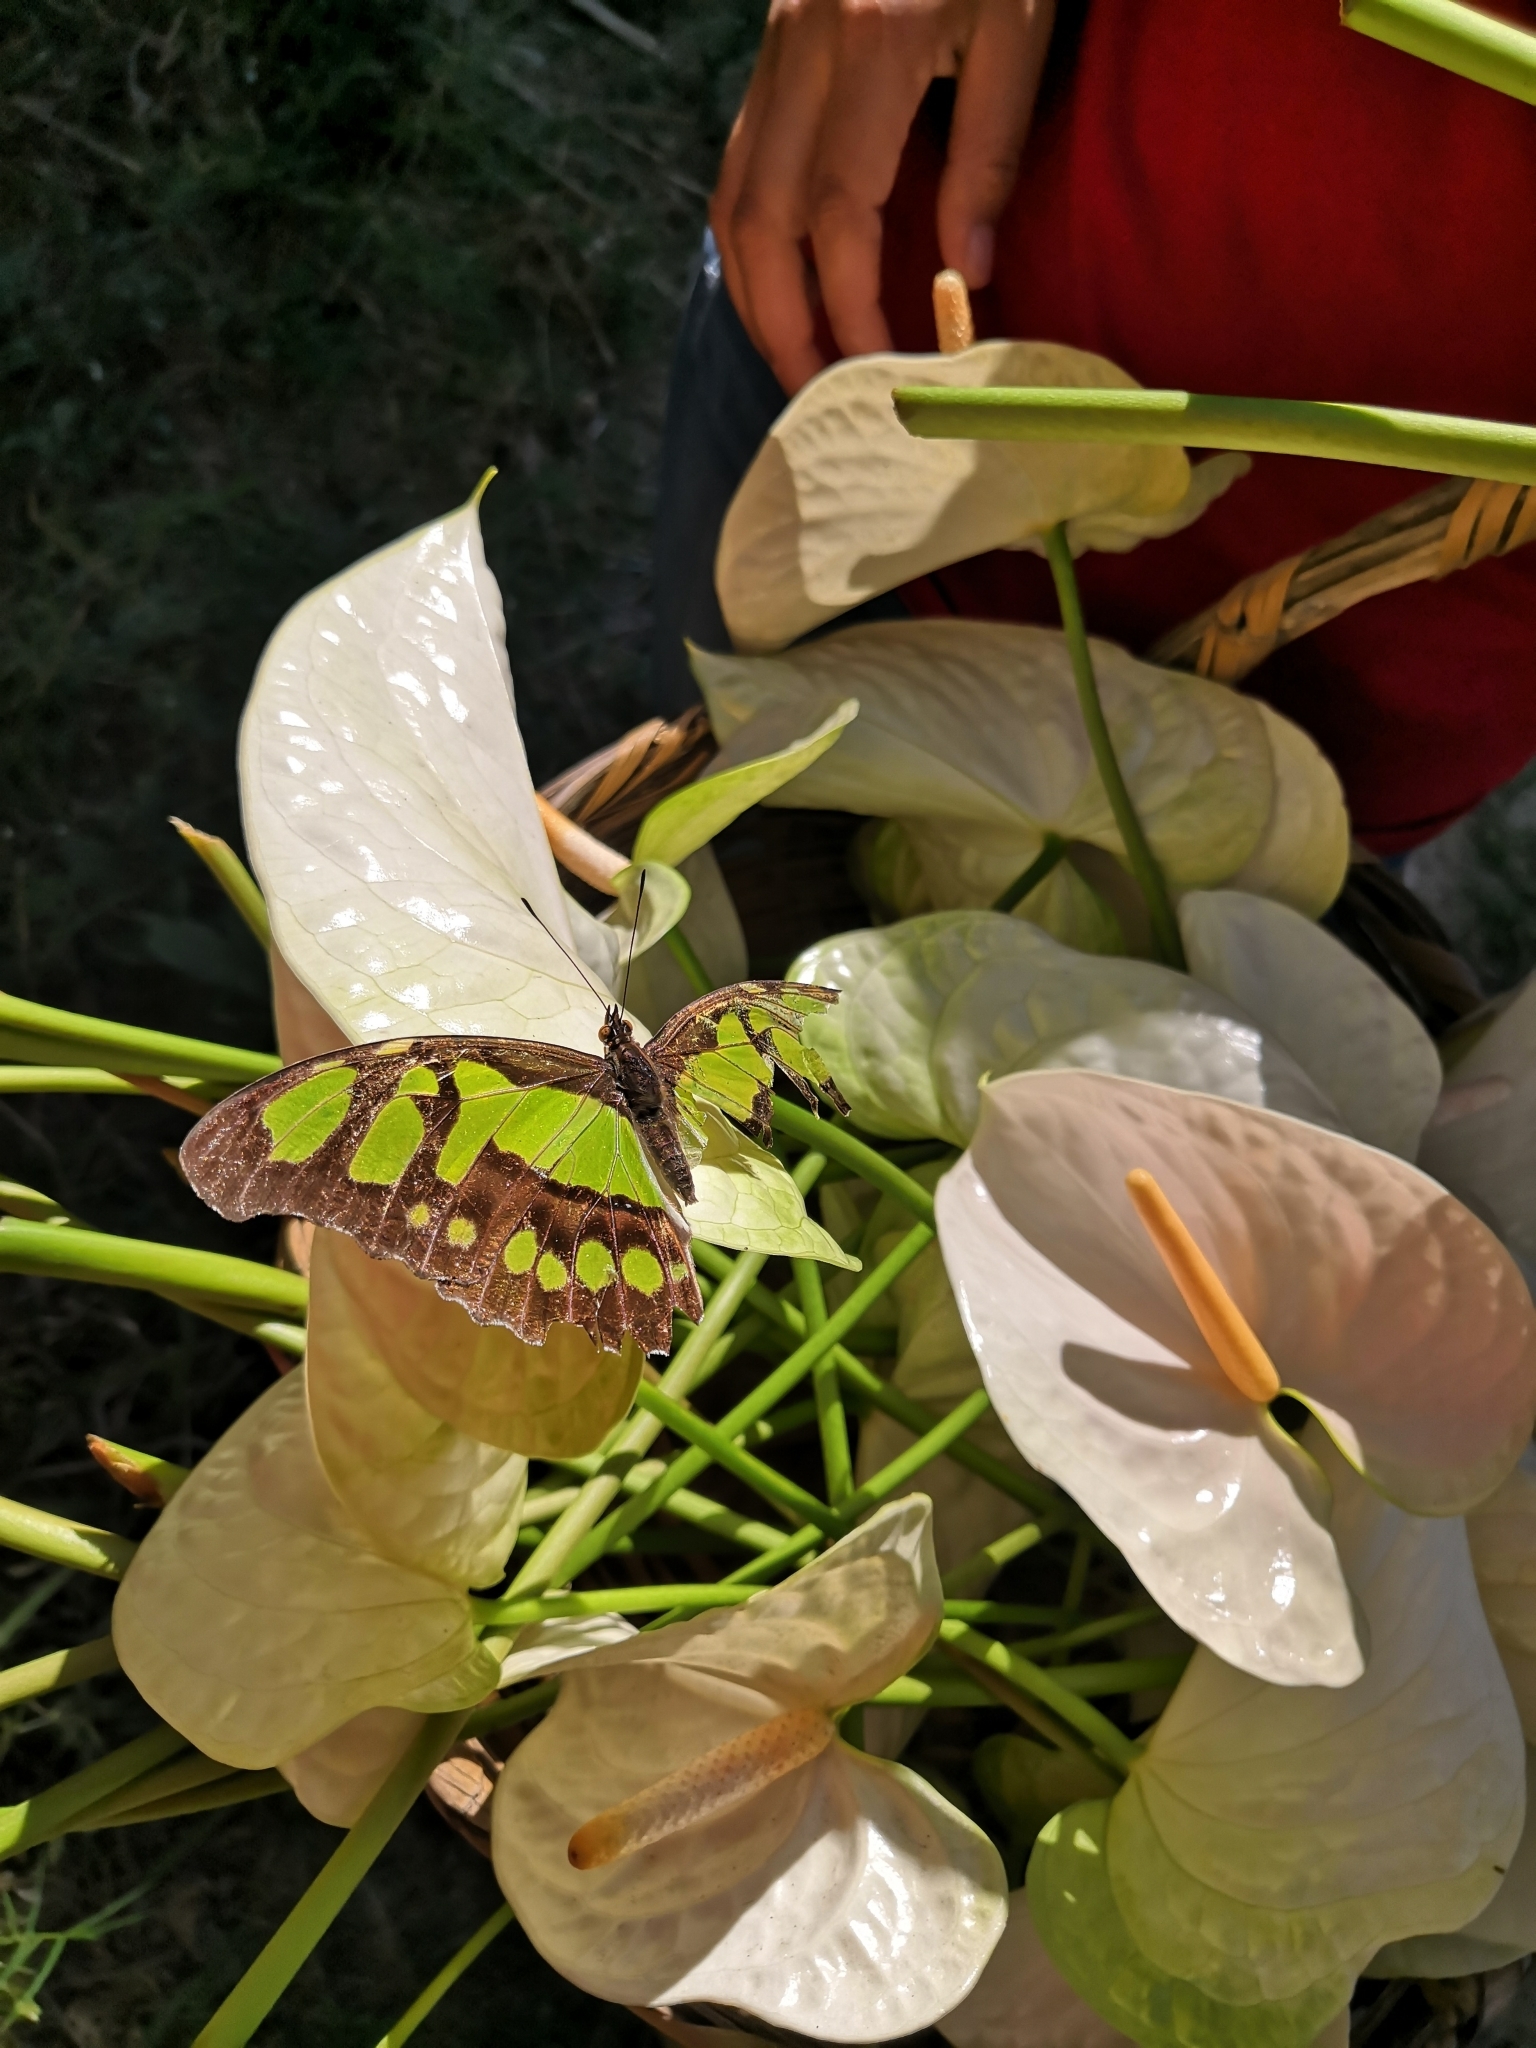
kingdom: Animalia
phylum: Arthropoda
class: Insecta
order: Lepidoptera
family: Nymphalidae
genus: Siproeta
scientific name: Siproeta stelenes
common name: Malachite
